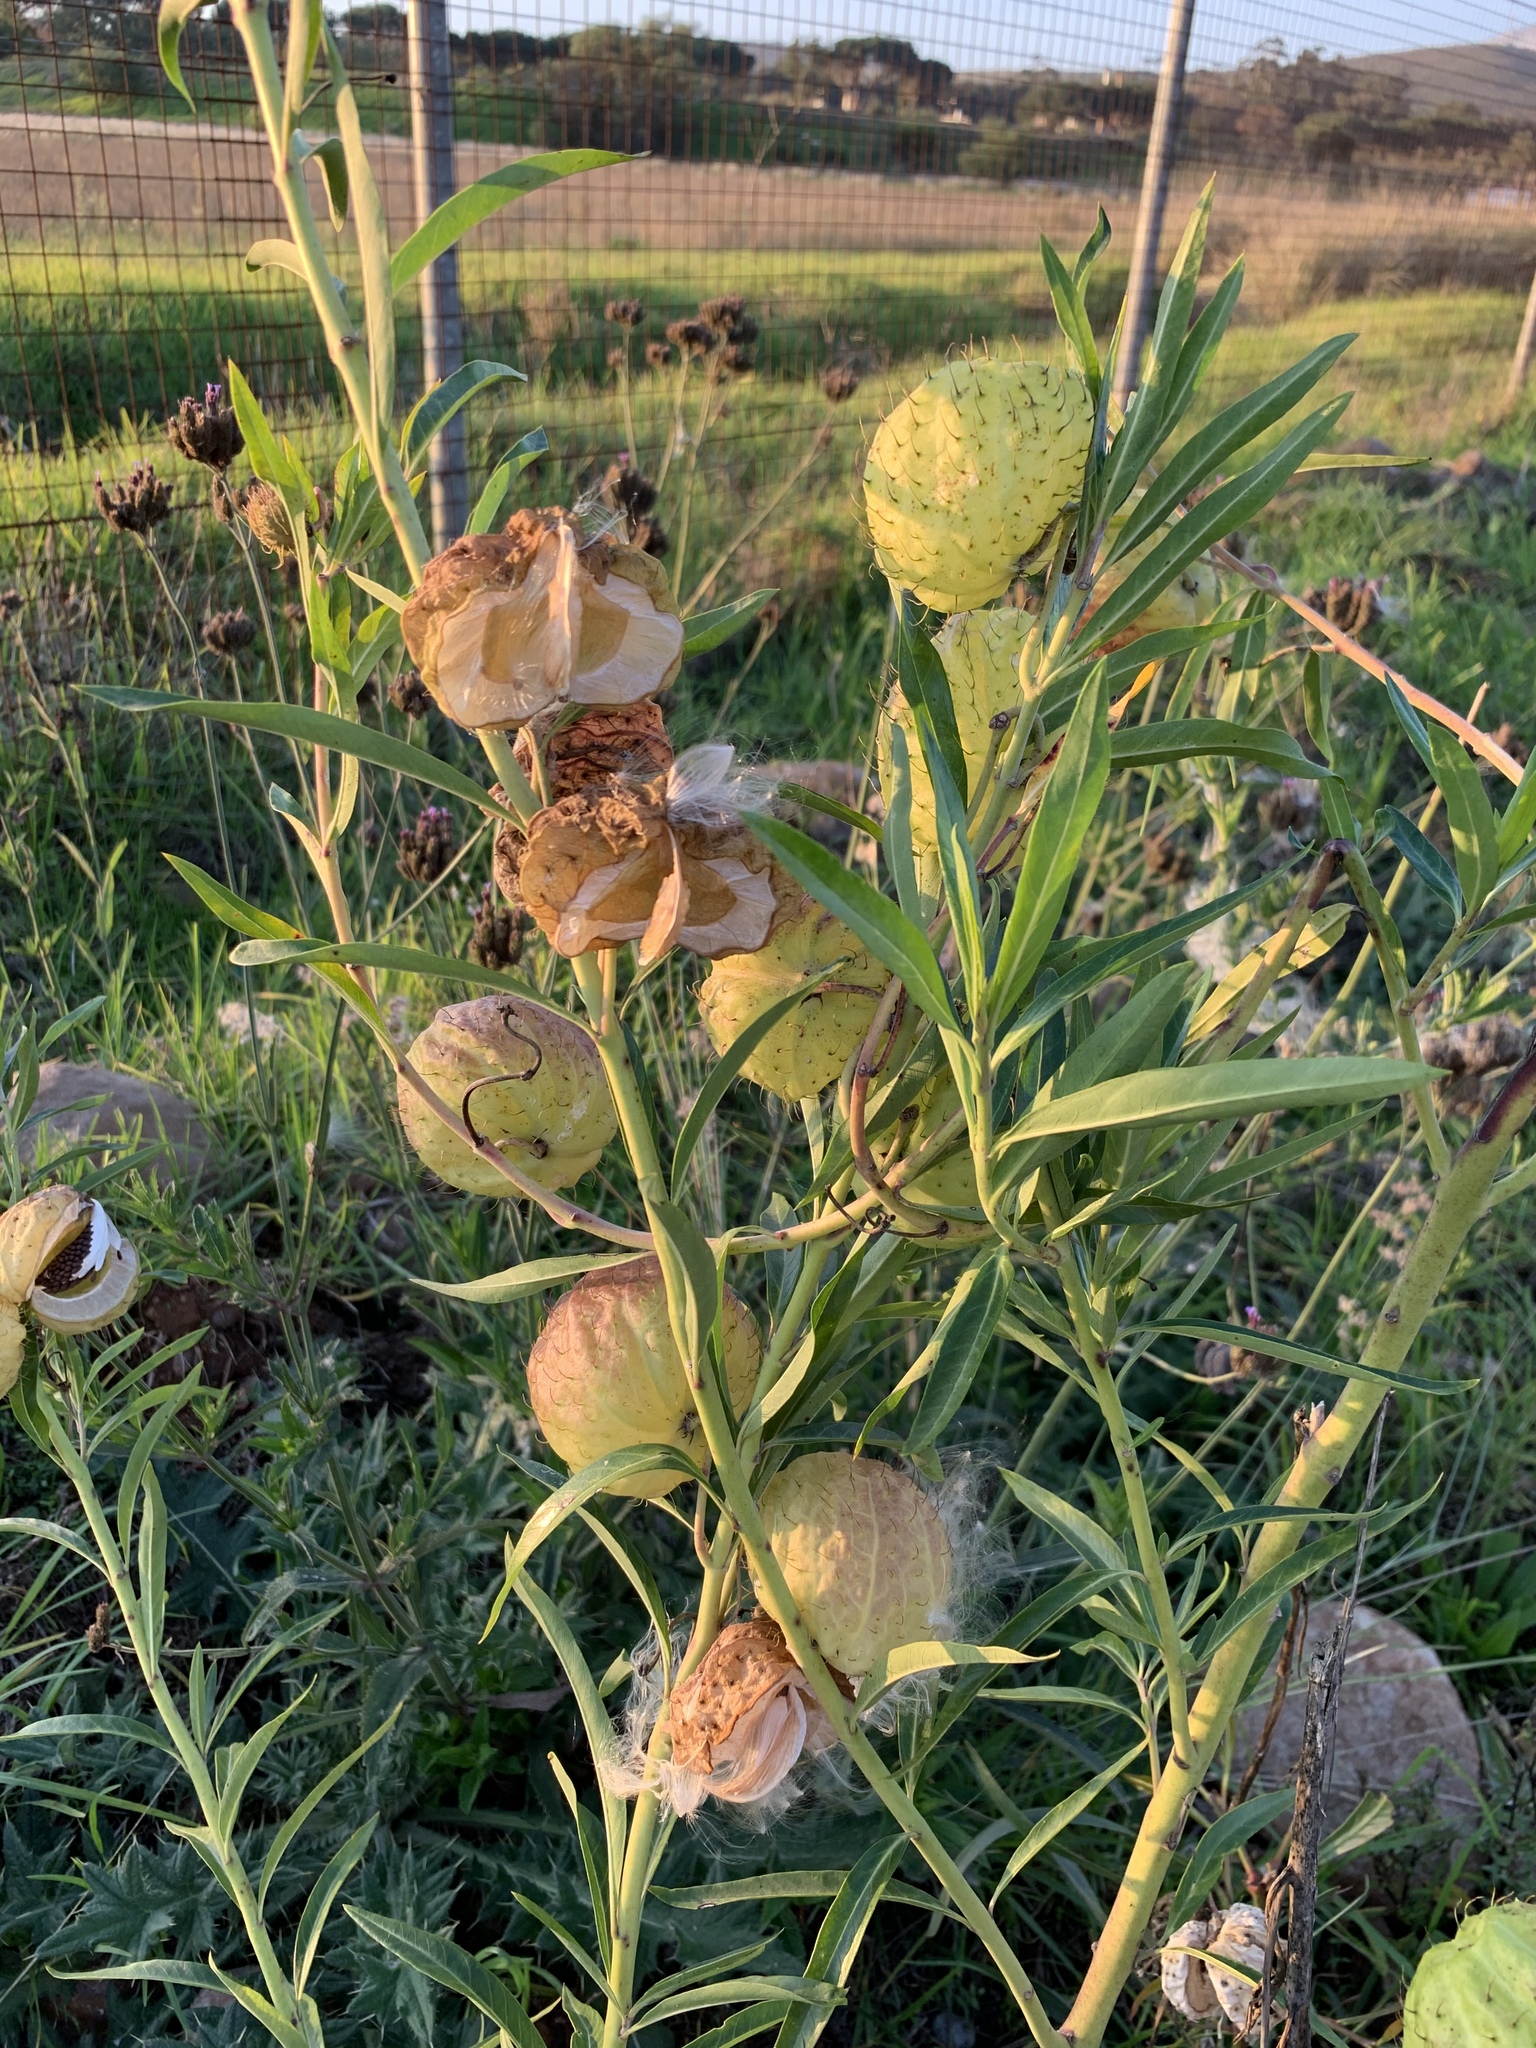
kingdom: Plantae
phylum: Tracheophyta
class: Magnoliopsida
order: Gentianales
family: Apocynaceae
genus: Gomphocarpus
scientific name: Gomphocarpus physocarpus
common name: Balloon cotton bush
